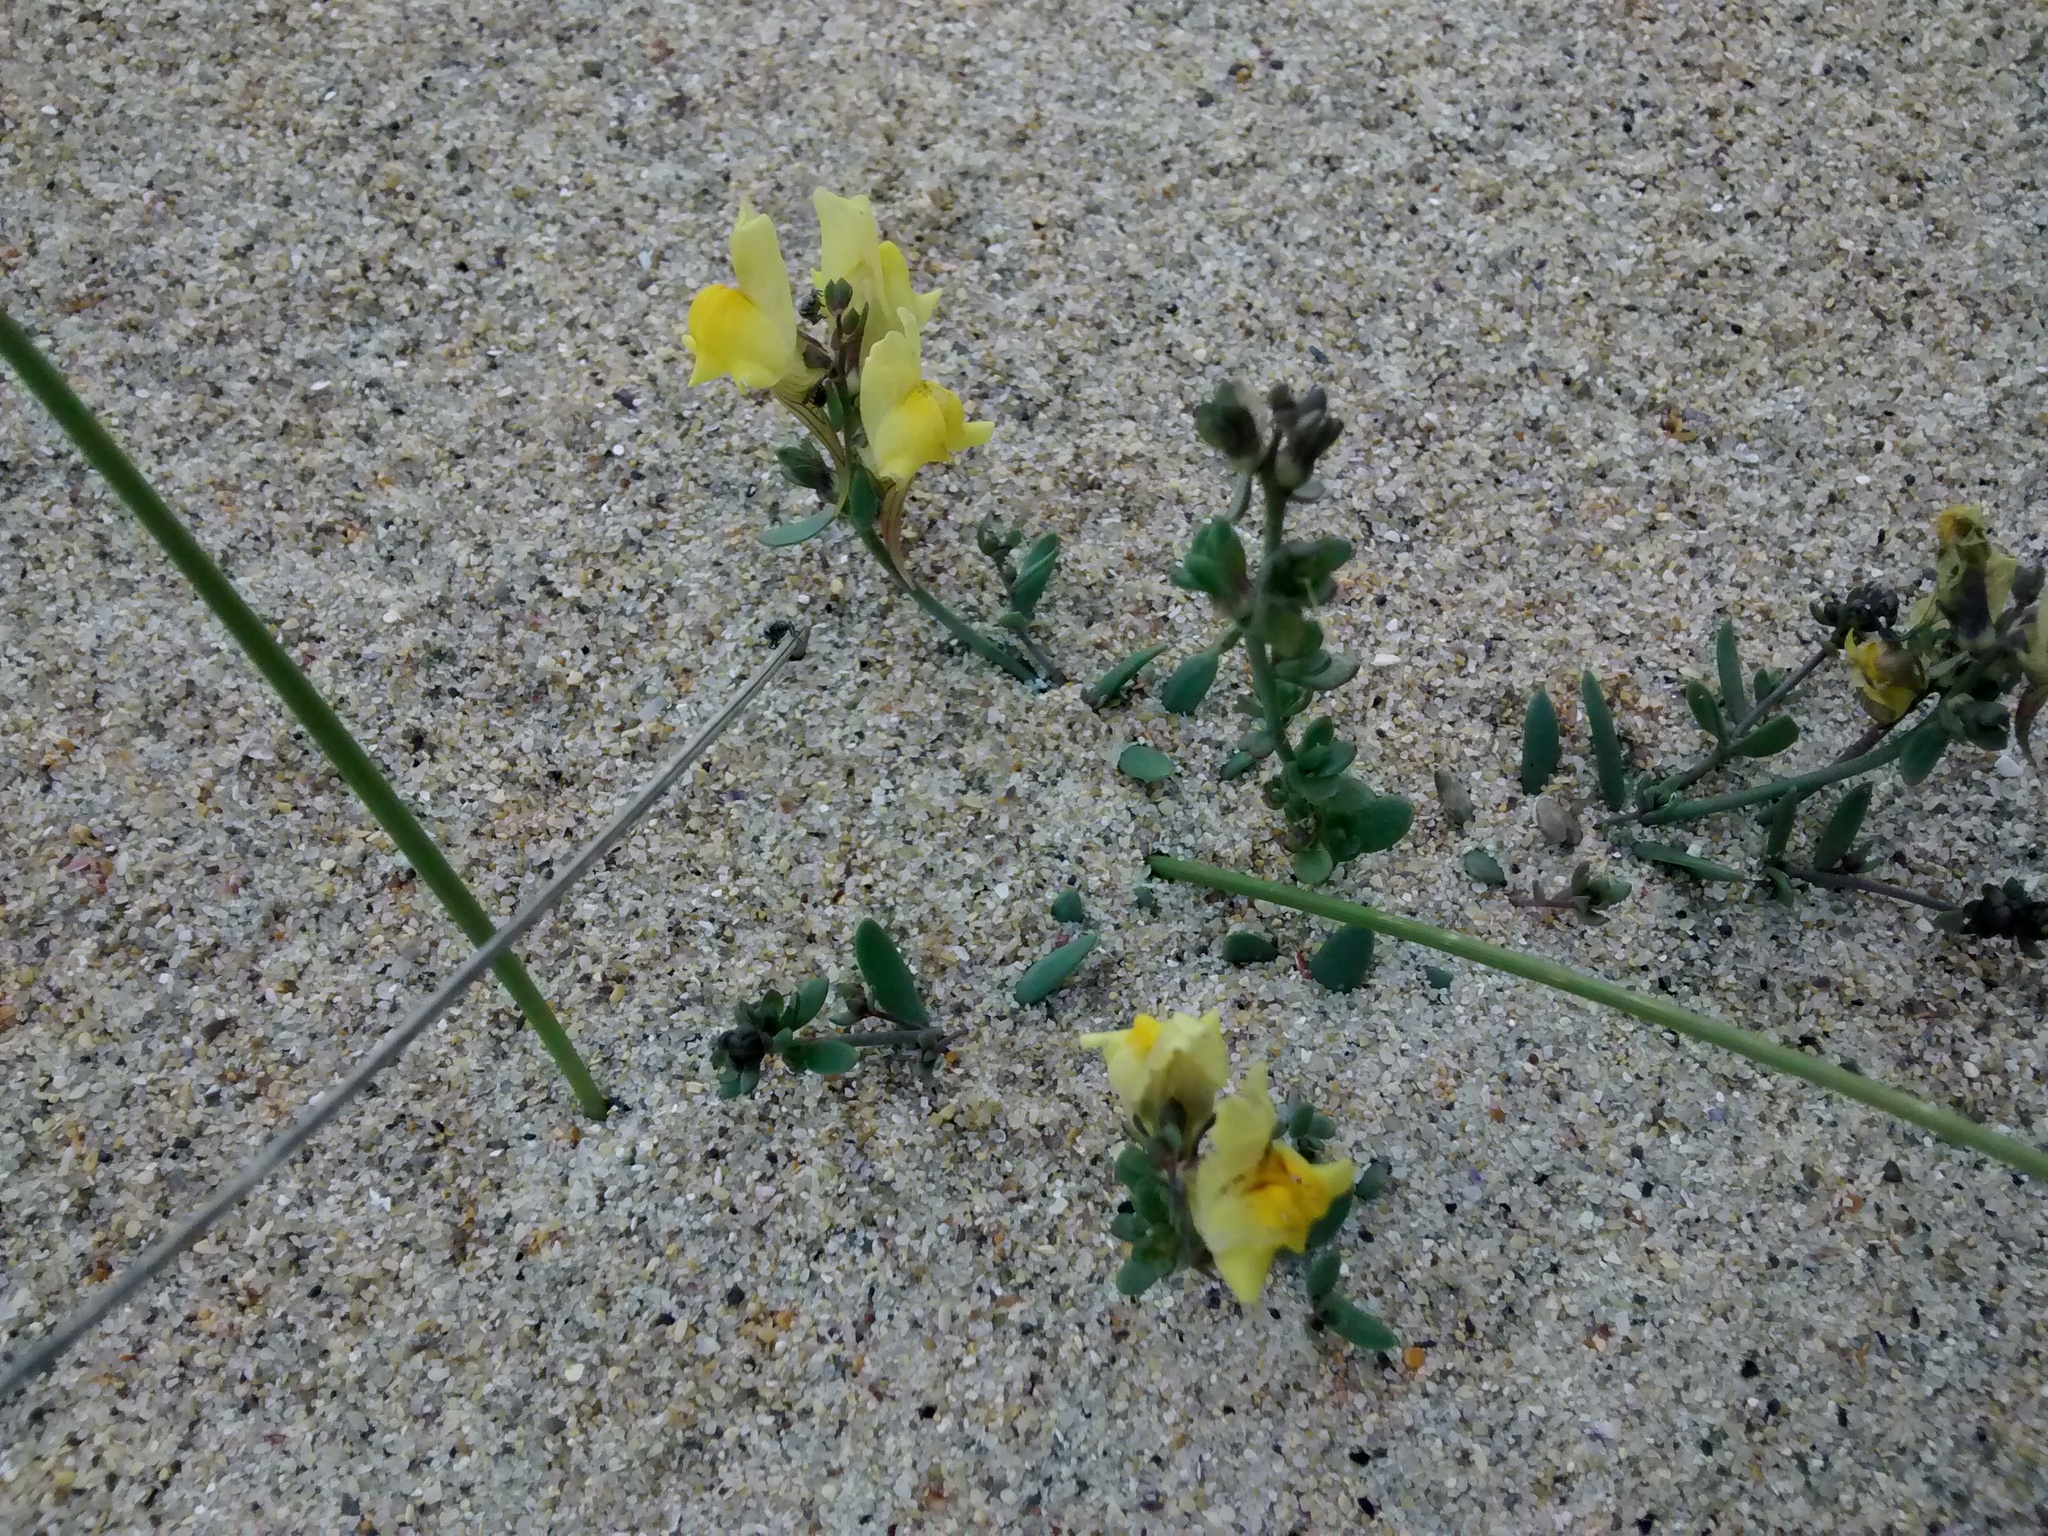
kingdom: Plantae
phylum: Tracheophyta
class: Magnoliopsida
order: Lamiales
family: Plantaginaceae
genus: Linaria
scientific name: Linaria polygalifolia
